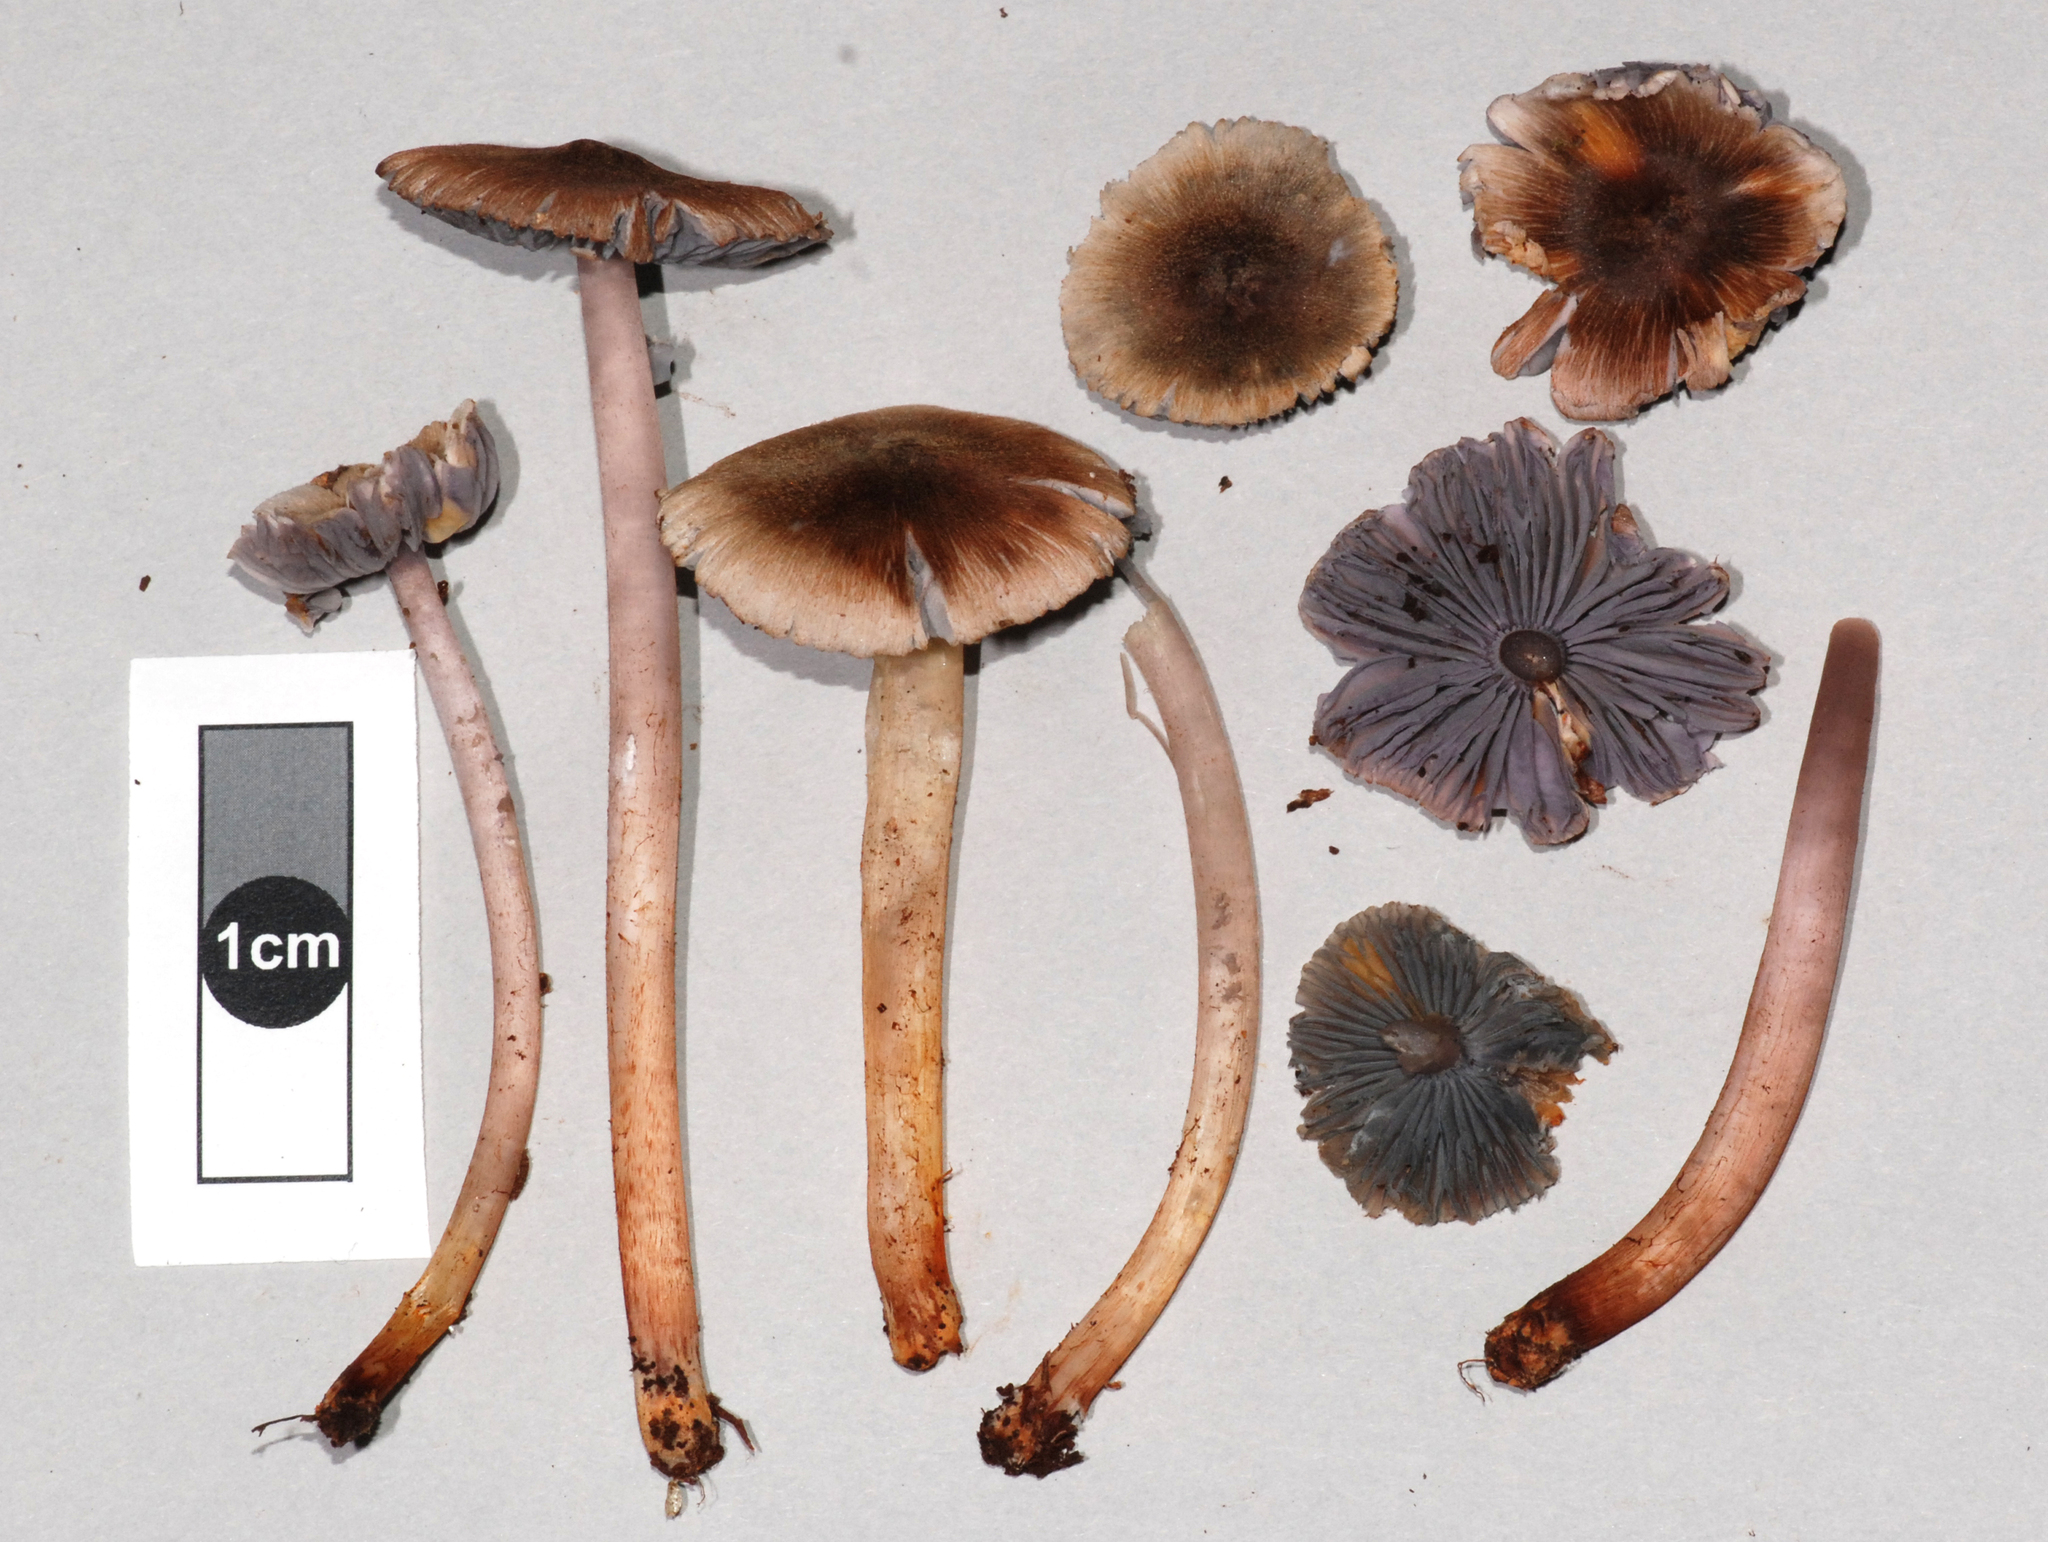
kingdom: Fungi
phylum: Basidiomycota
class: Agaricomycetes
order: Agaricales
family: Hygrophoraceae
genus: Humidicutis
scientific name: Humidicutis multicolor
